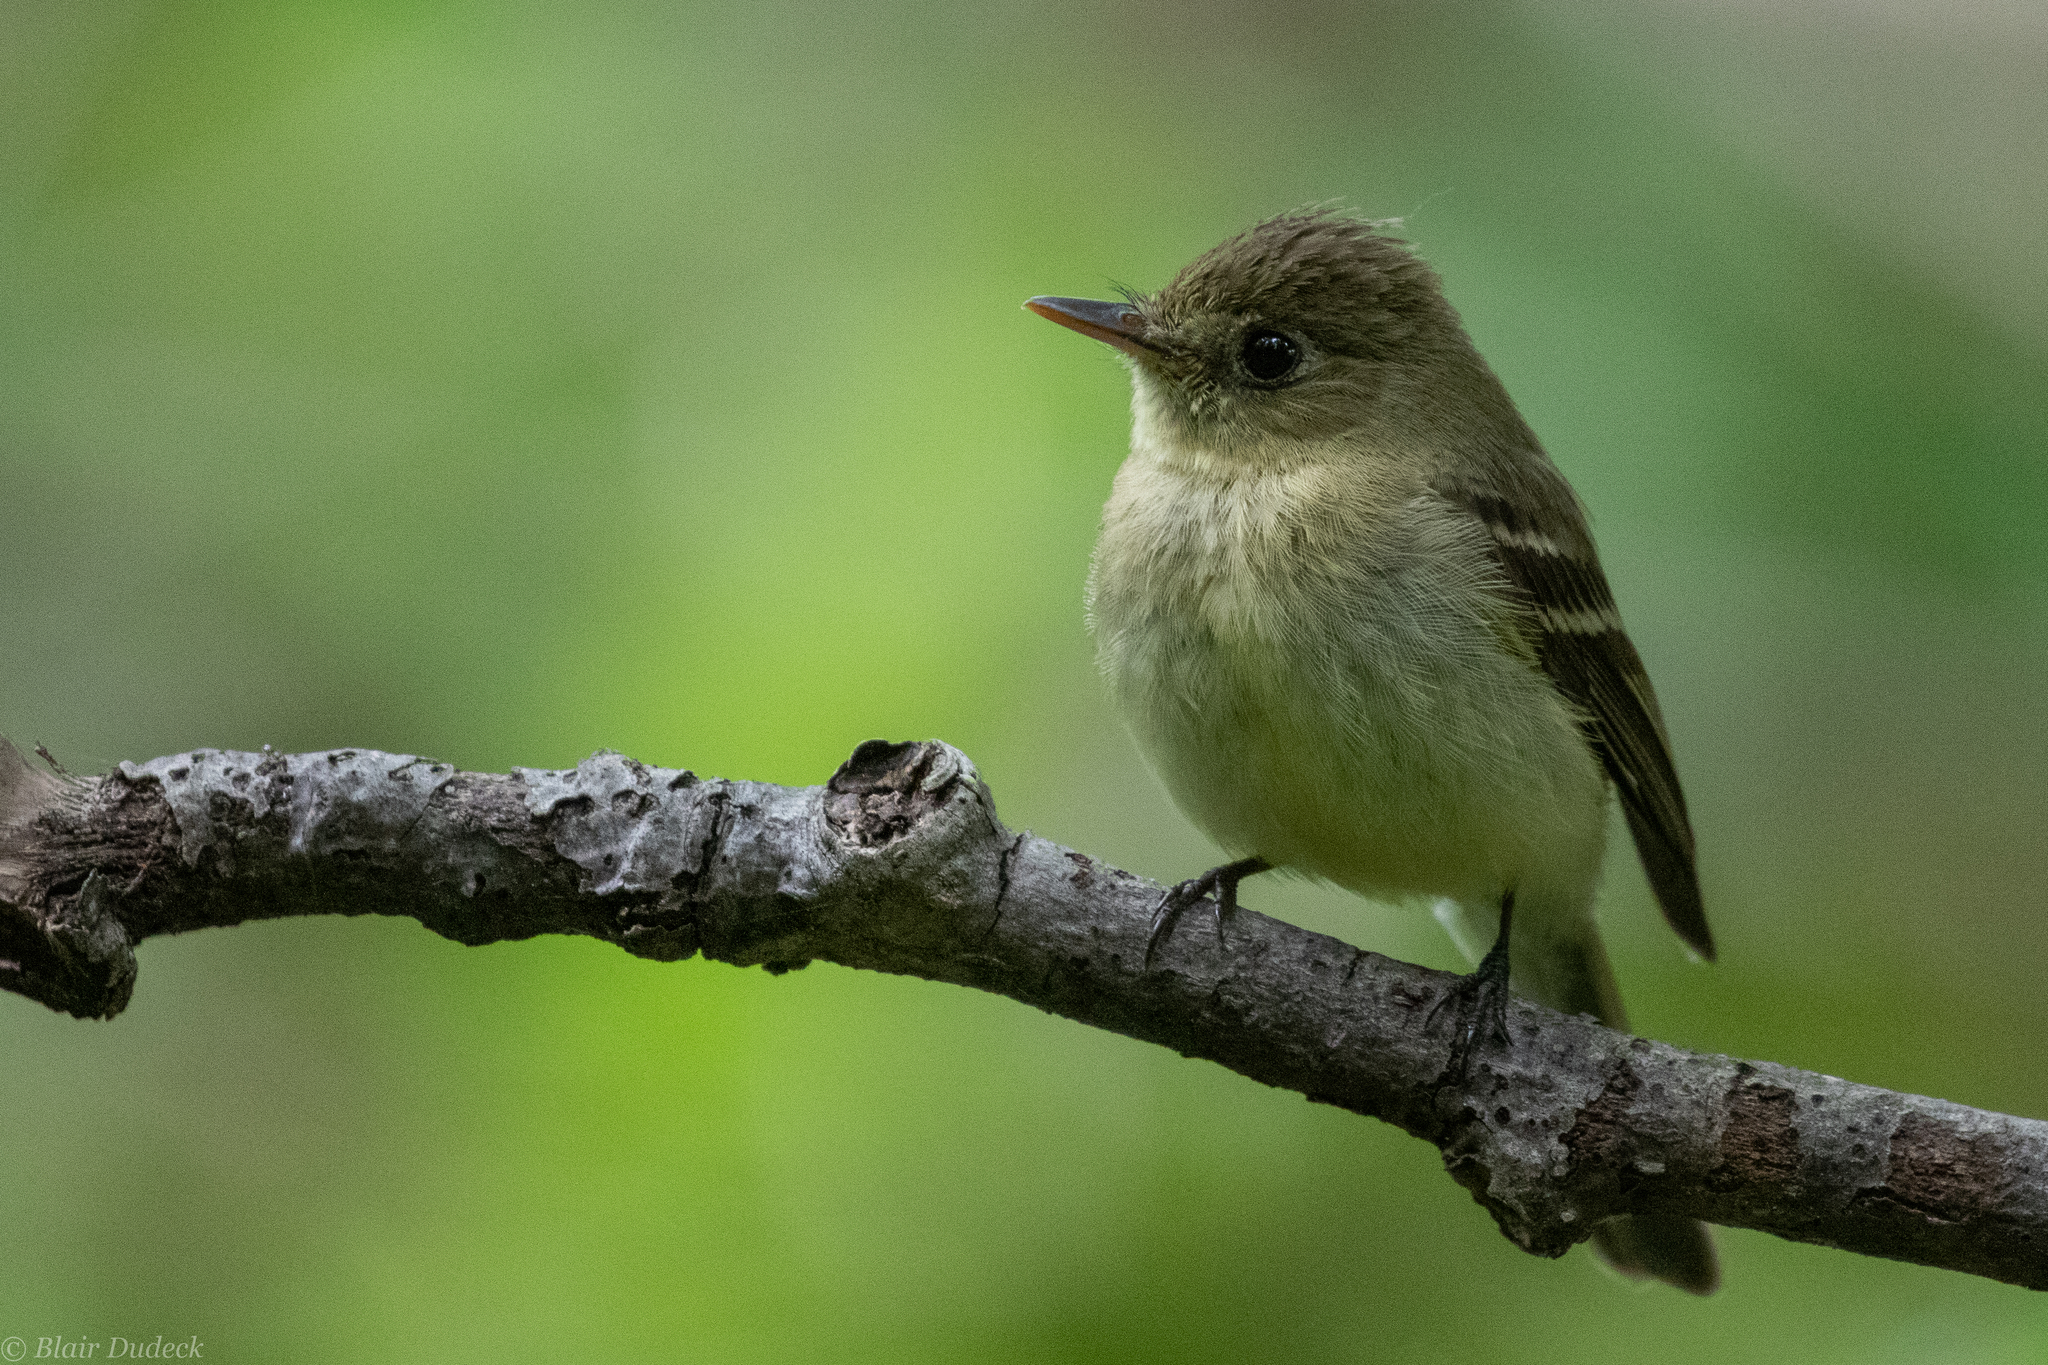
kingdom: Animalia
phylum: Chordata
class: Aves
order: Passeriformes
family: Tyrannidae
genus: Empidonax
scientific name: Empidonax difficilis
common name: Pacific-slope flycatcher
